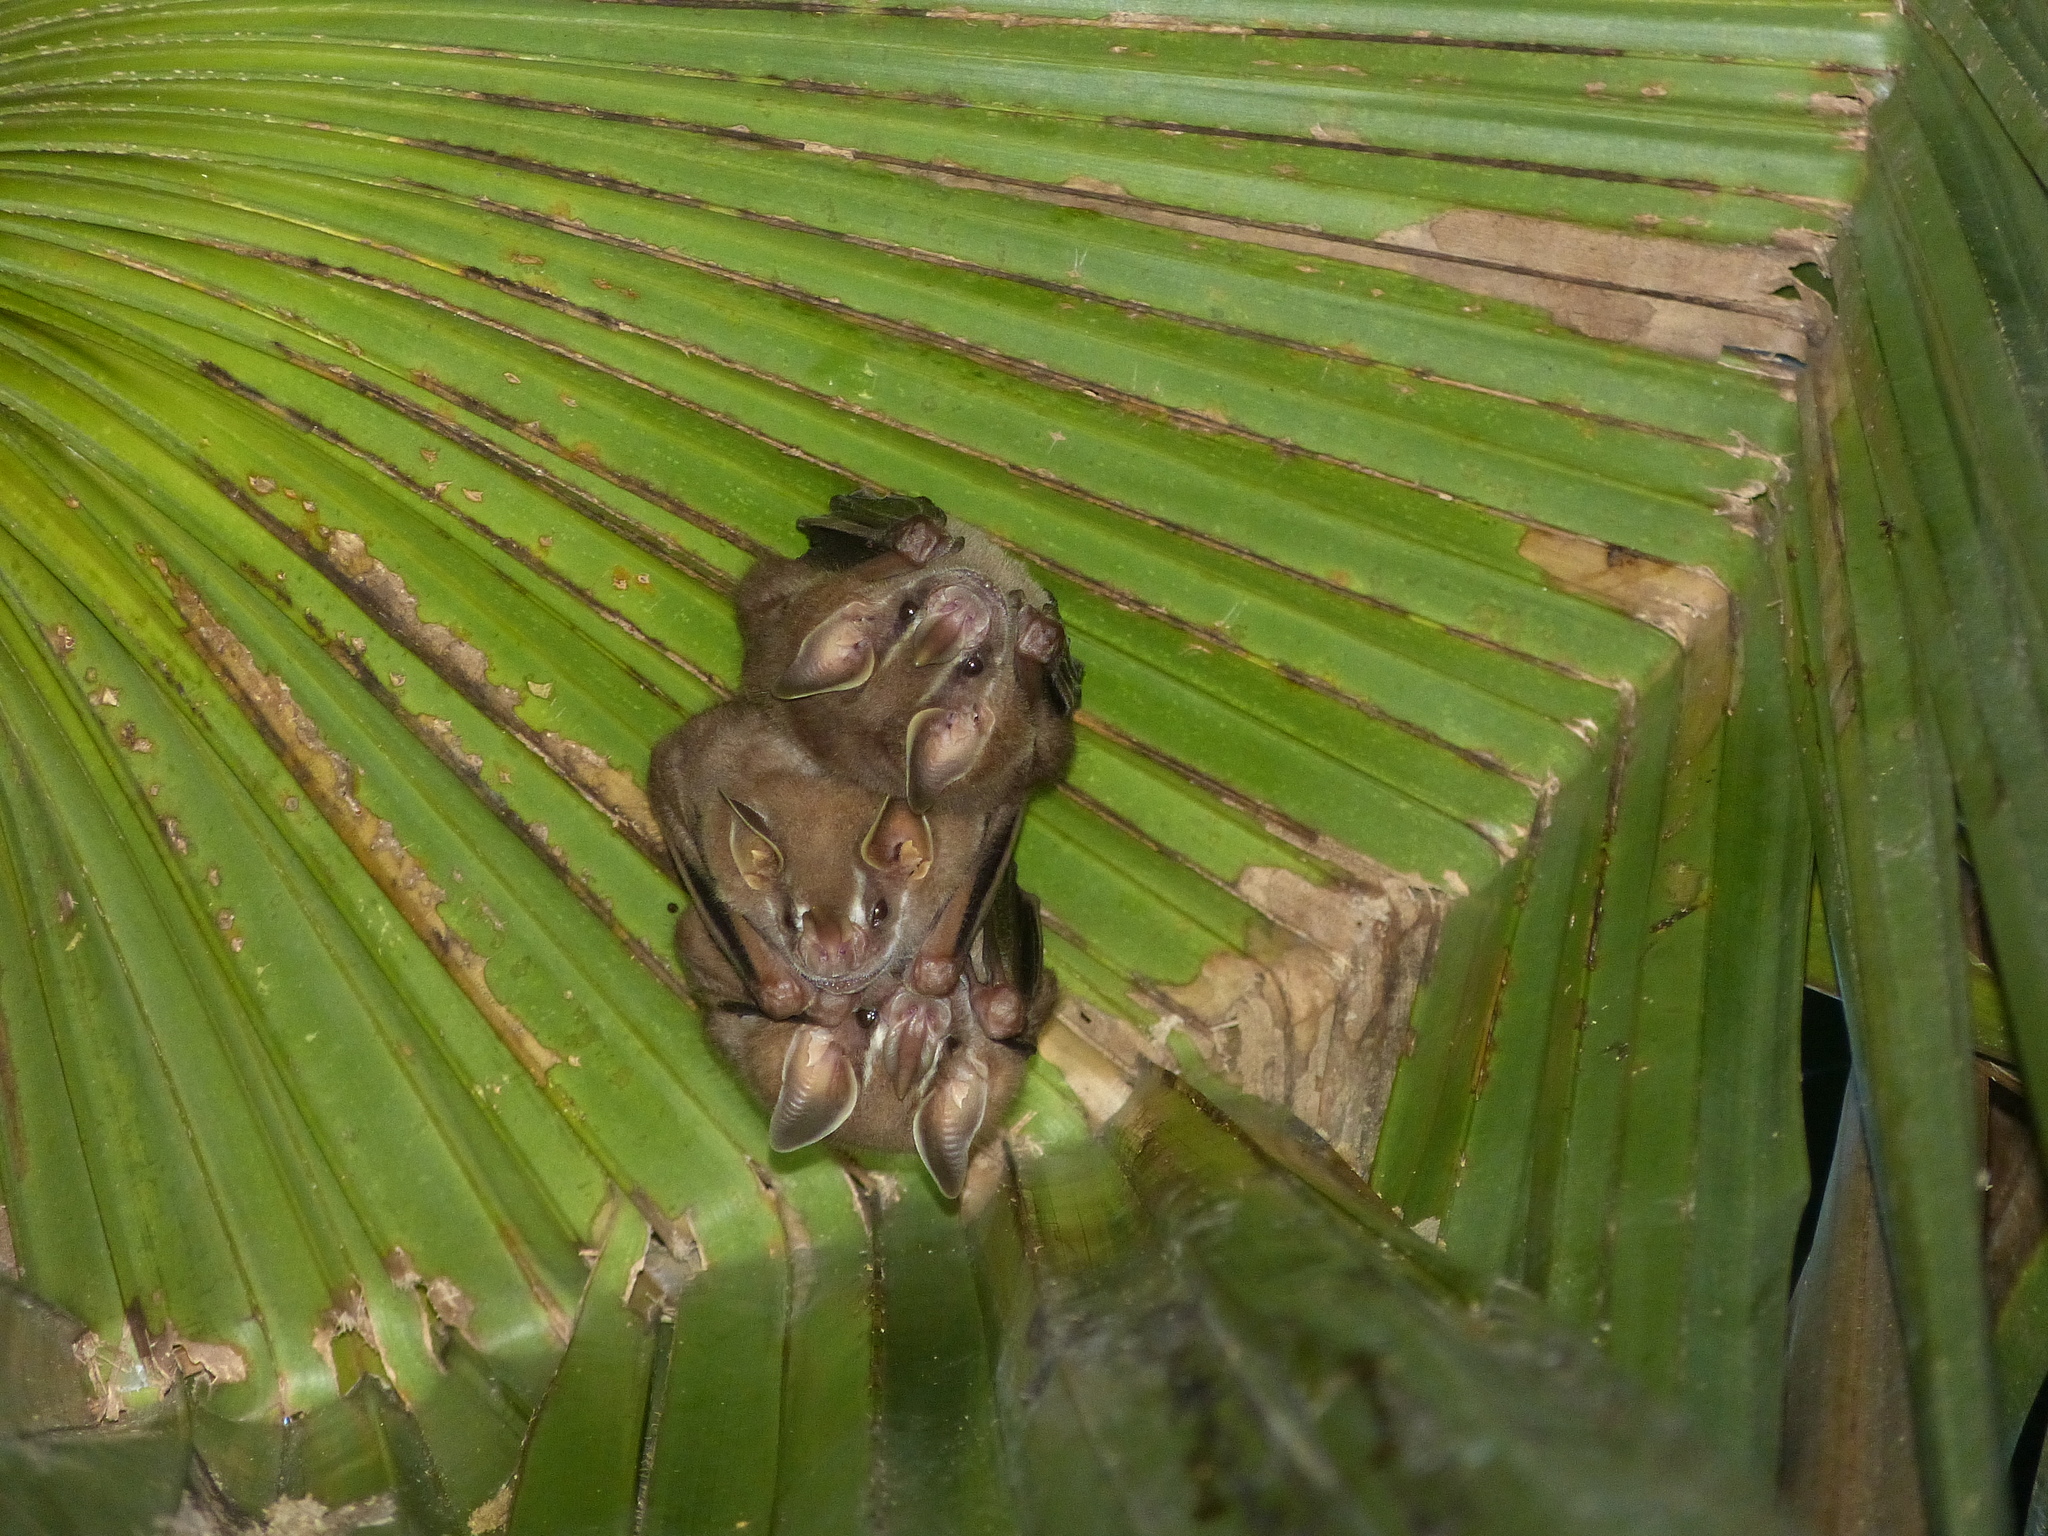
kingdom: Animalia
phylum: Chordata
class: Mammalia
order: Chiroptera
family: Phyllostomidae
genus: Artibeus
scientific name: Artibeus phaeotis
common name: Pygmy fruit-eating bat
